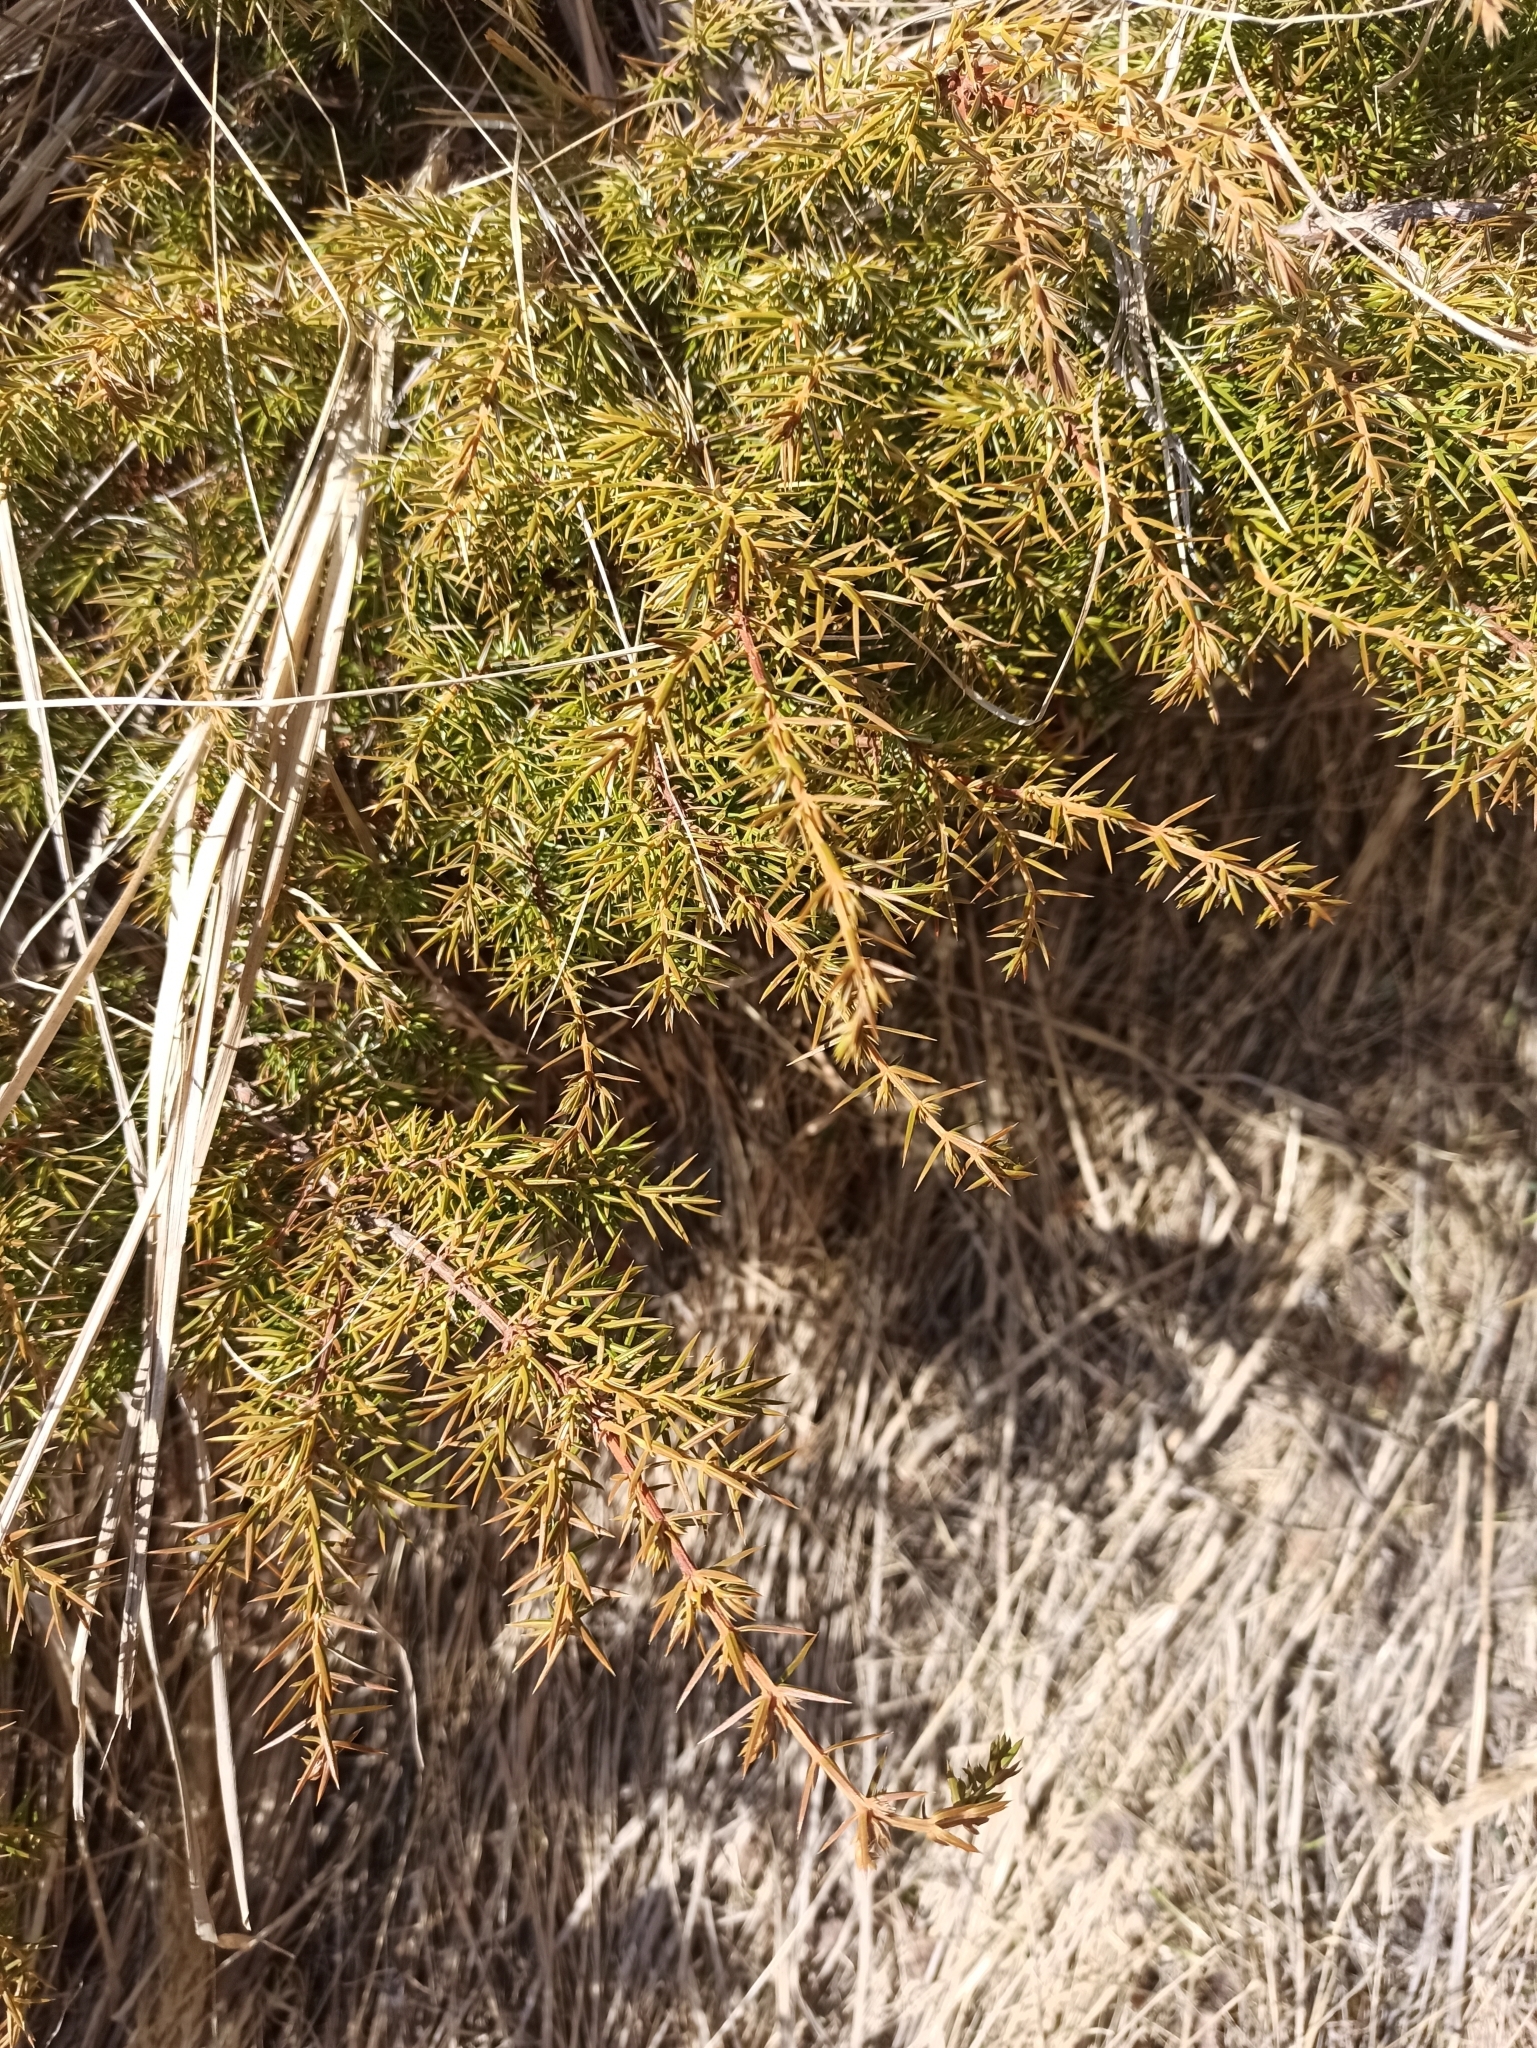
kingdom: Plantae
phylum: Tracheophyta
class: Pinopsida
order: Pinales
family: Cupressaceae
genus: Juniperus
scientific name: Juniperus communis
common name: Common juniper
